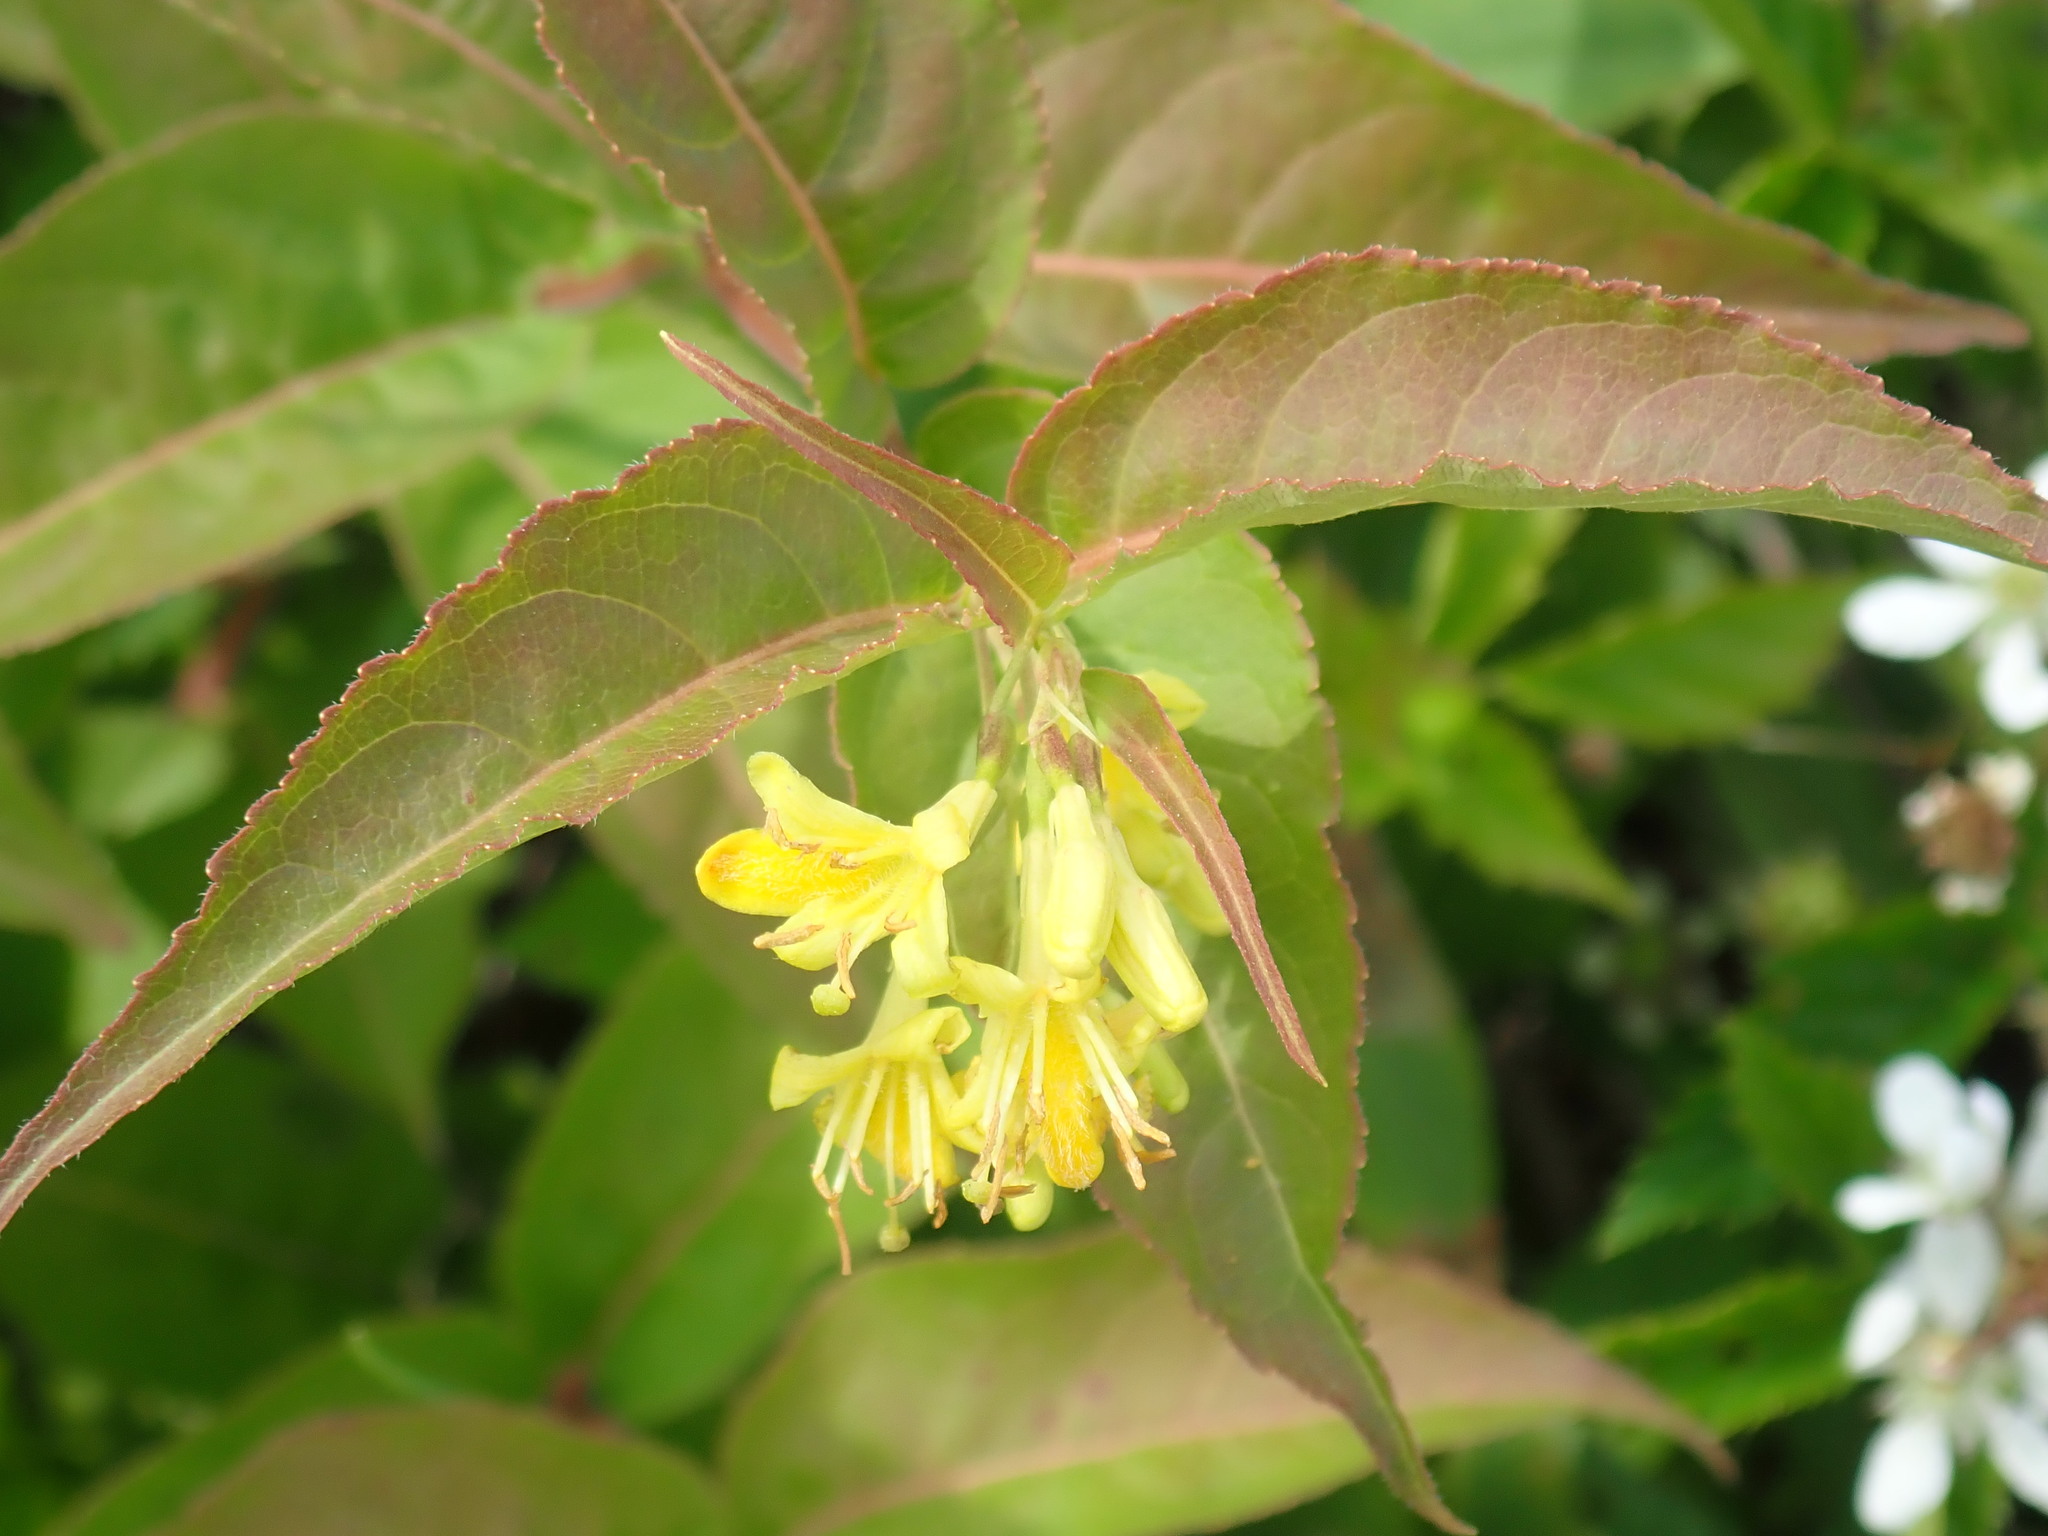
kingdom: Plantae
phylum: Tracheophyta
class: Magnoliopsida
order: Dipsacales
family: Caprifoliaceae
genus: Diervilla
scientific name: Diervilla lonicera
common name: Bush-honeysuckle
